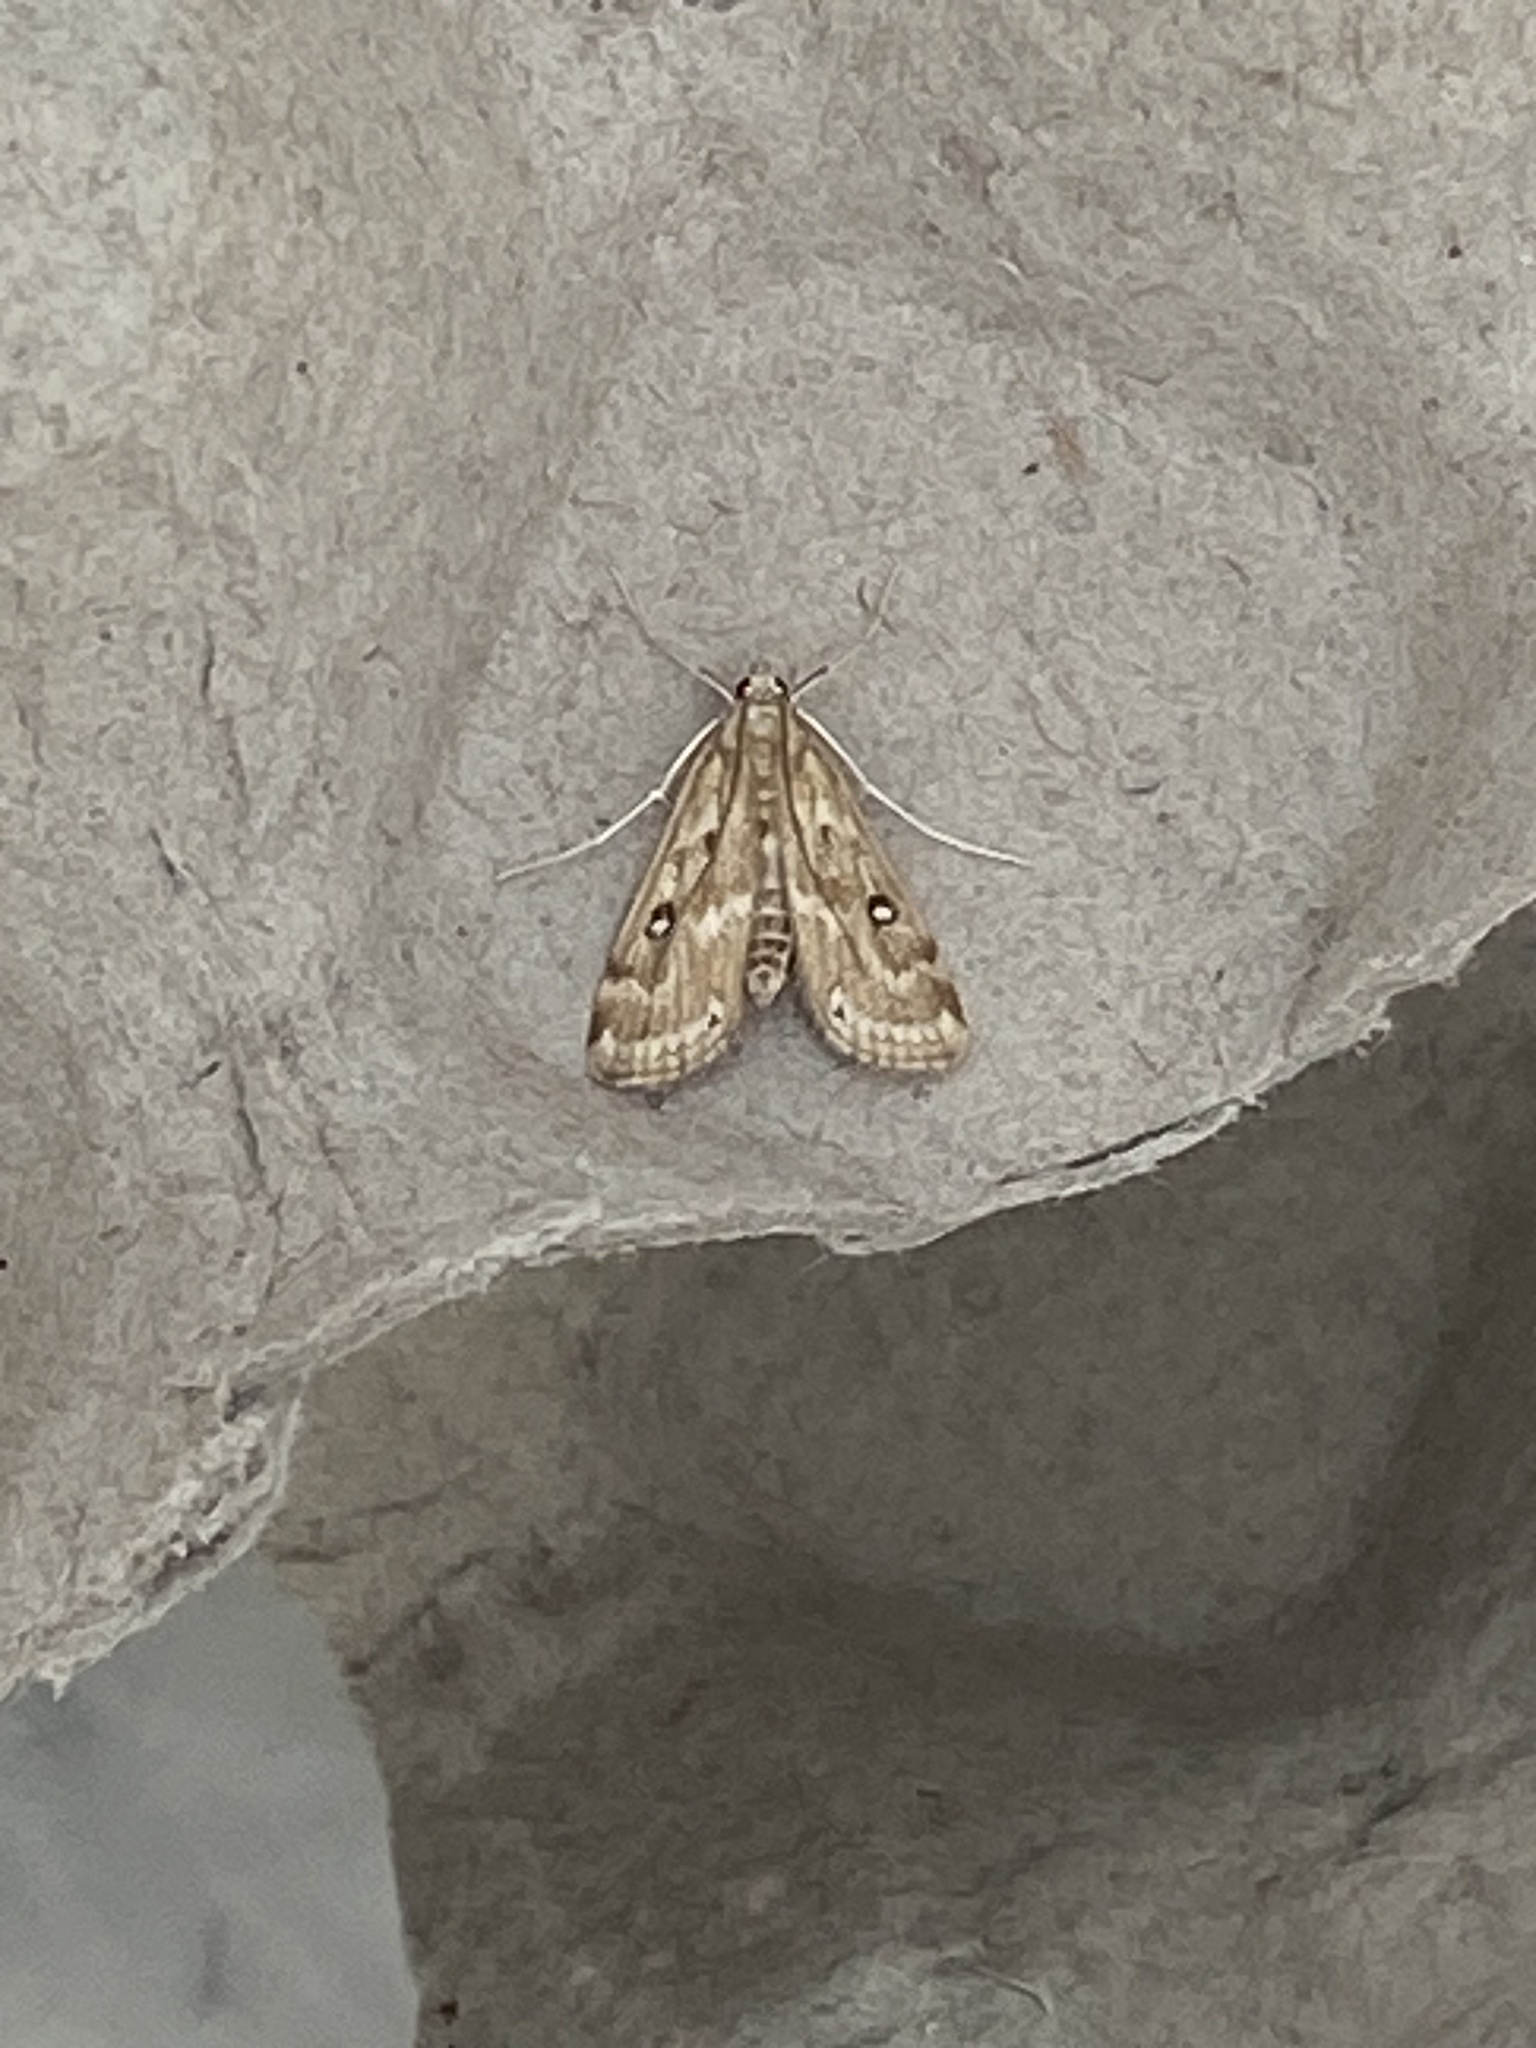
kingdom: Animalia
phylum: Arthropoda
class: Insecta
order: Lepidoptera
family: Crambidae
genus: Parapoynx
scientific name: Parapoynx stratiotata
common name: Ringed china-mark
